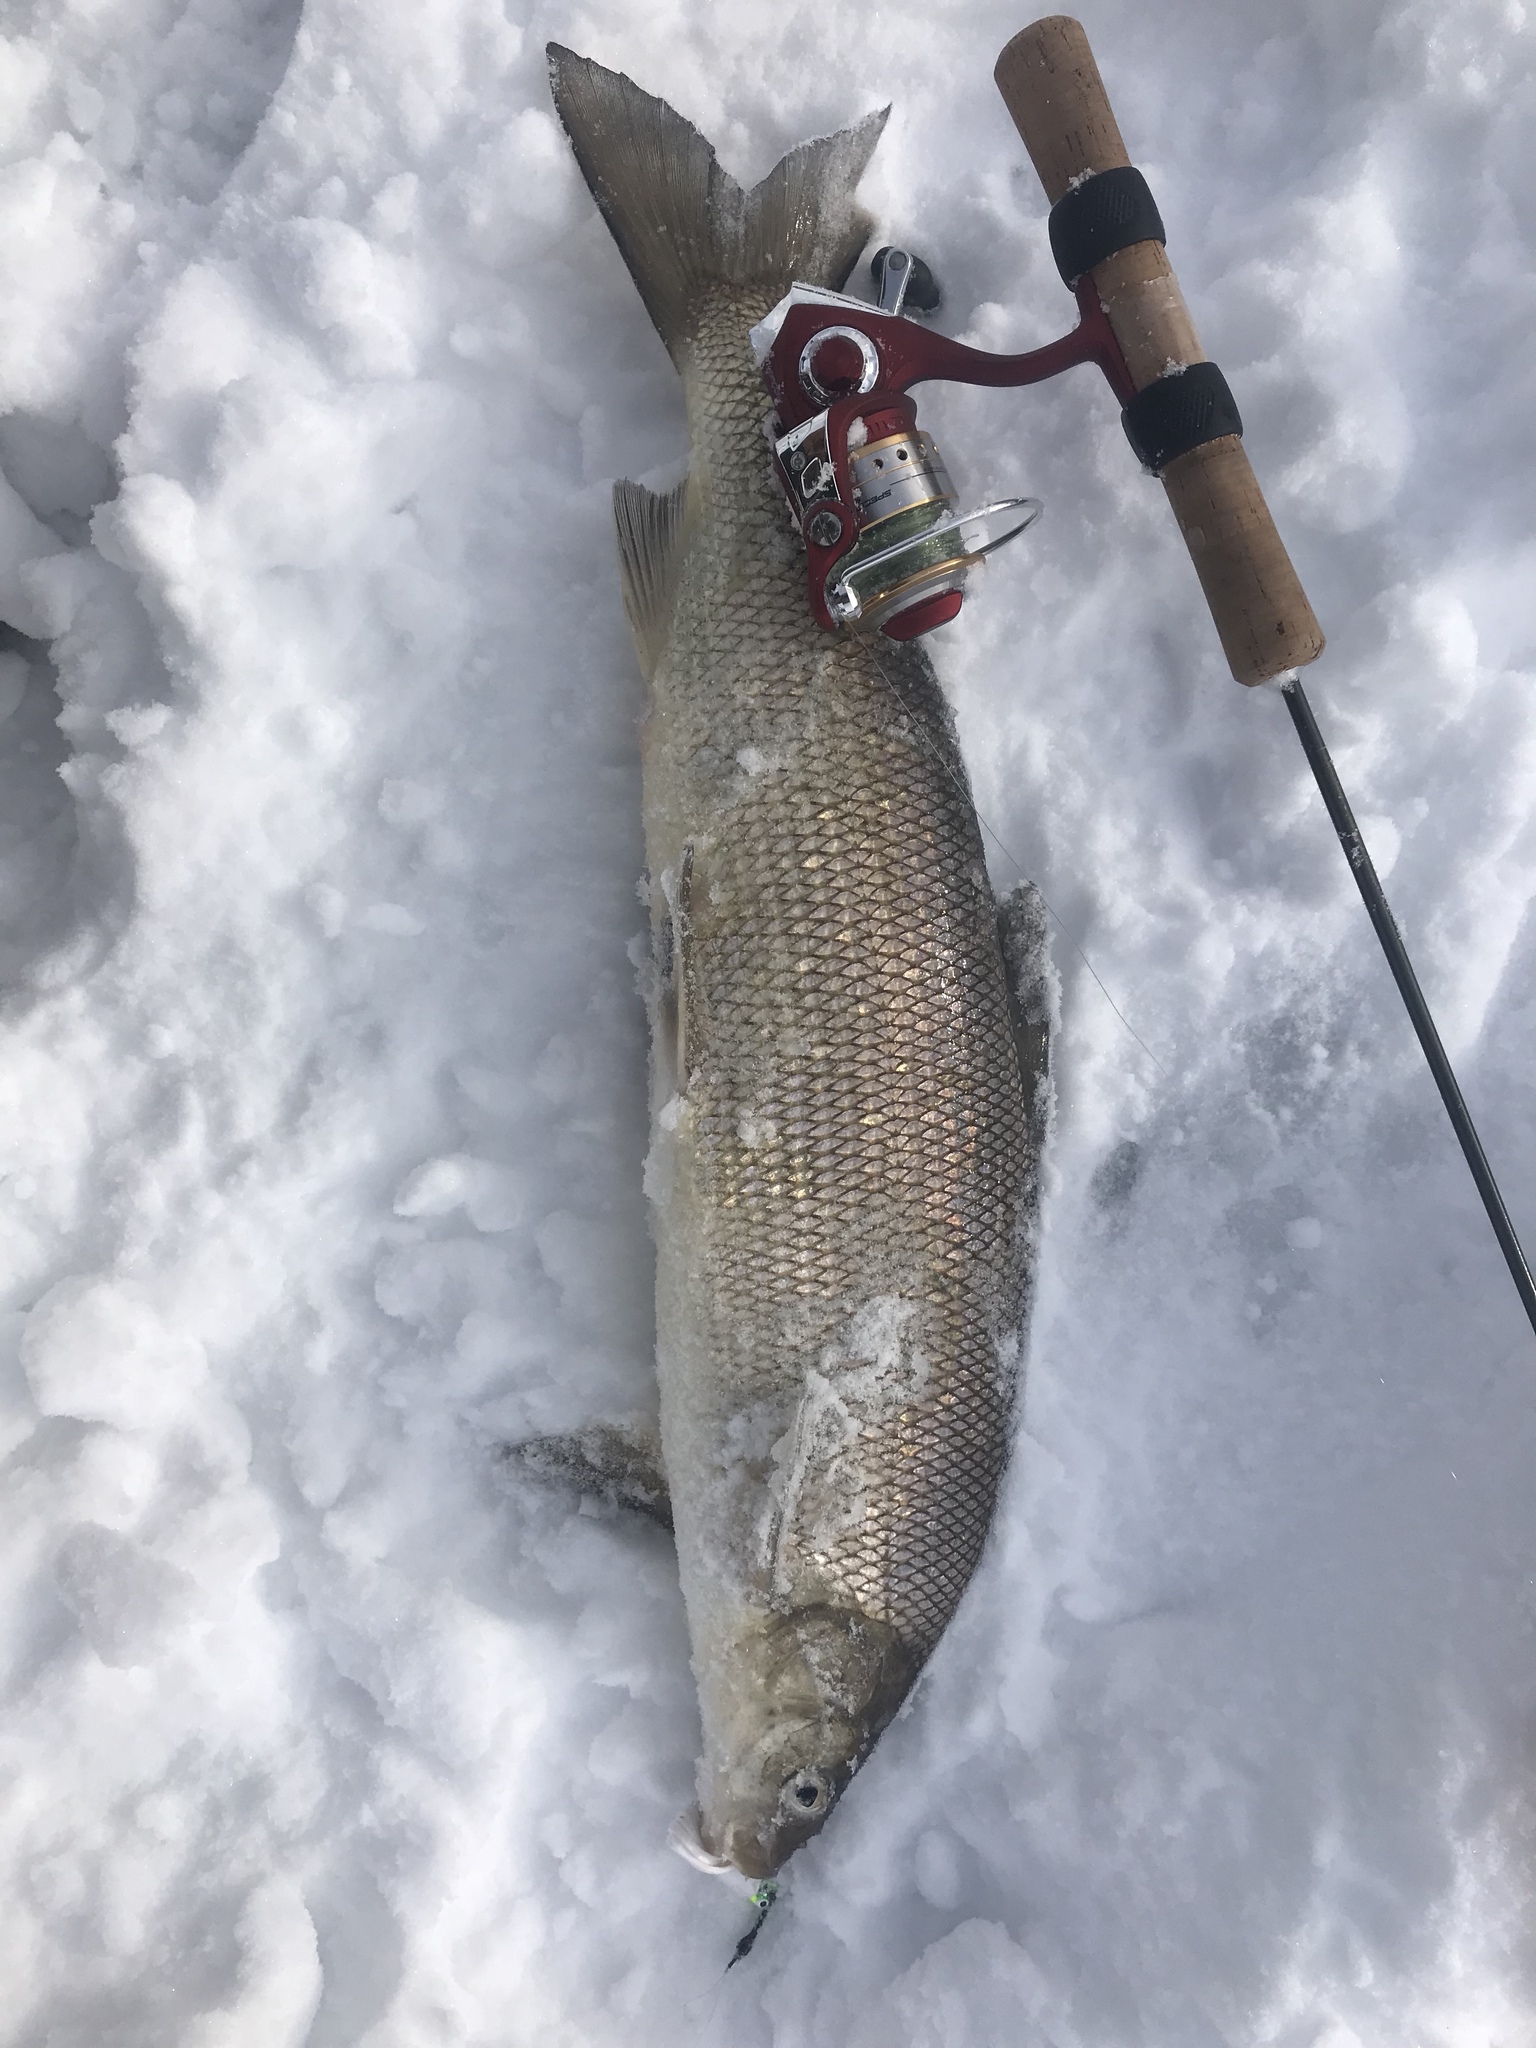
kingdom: Animalia
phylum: Chordata
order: Salmoniformes
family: Salmonidae
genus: Coregonus
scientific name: Coregonus clupeaformis
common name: Lake whitefish
